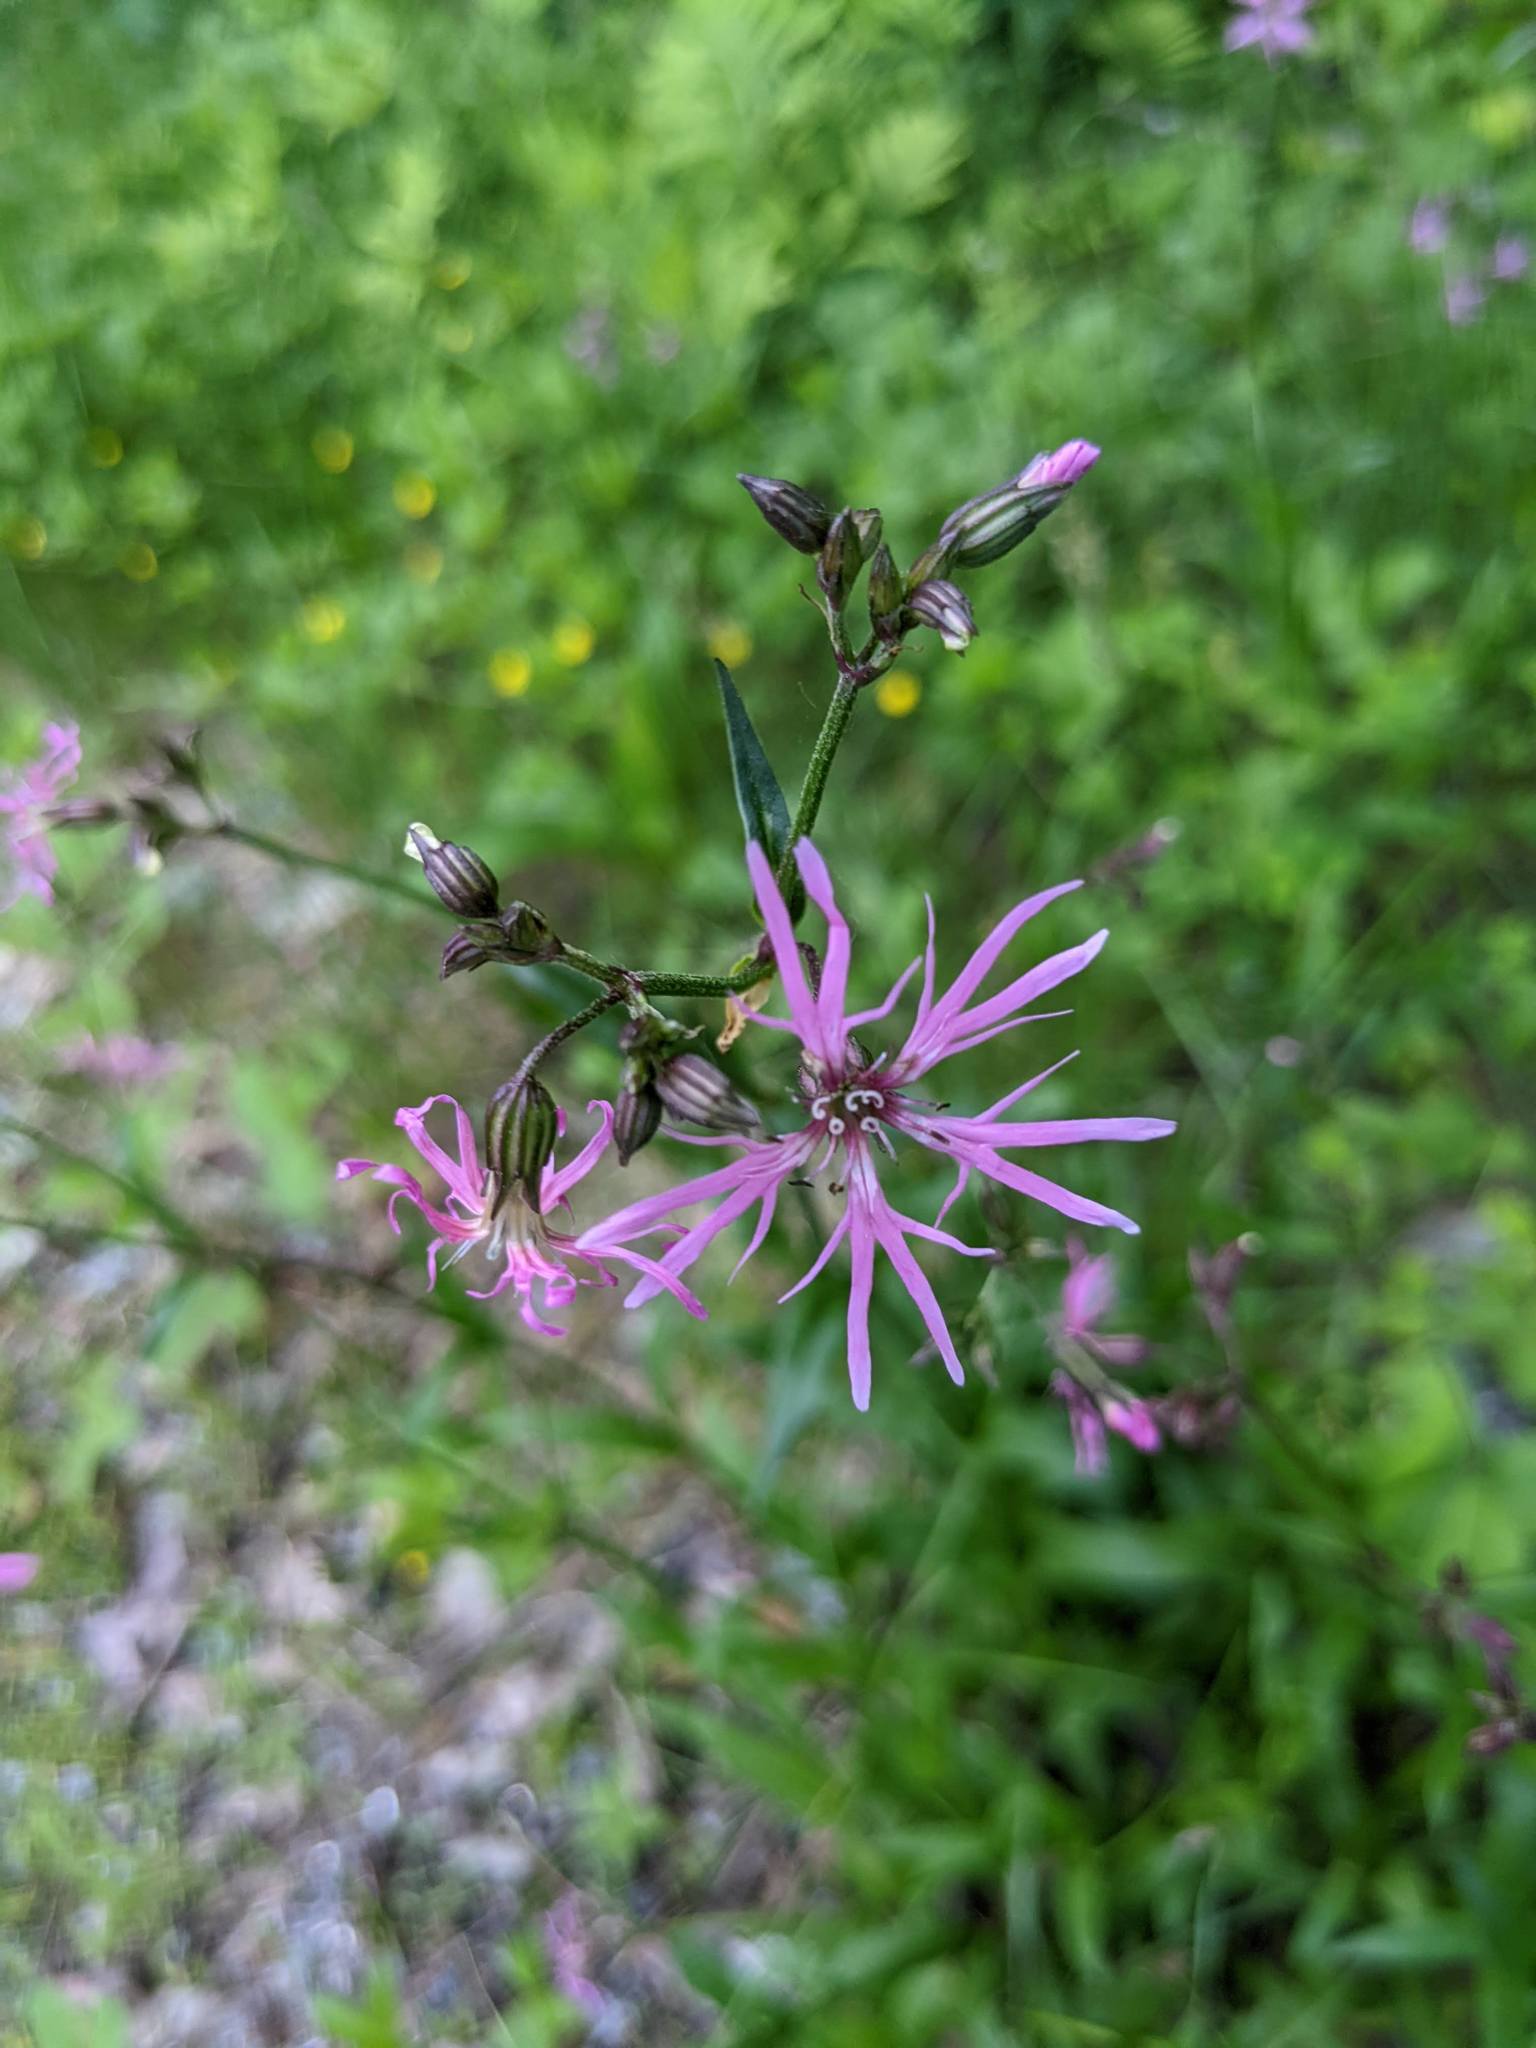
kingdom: Plantae
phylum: Tracheophyta
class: Magnoliopsida
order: Caryophyllales
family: Caryophyllaceae
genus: Silene
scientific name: Silene flos-cuculi
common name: Ragged-robin
